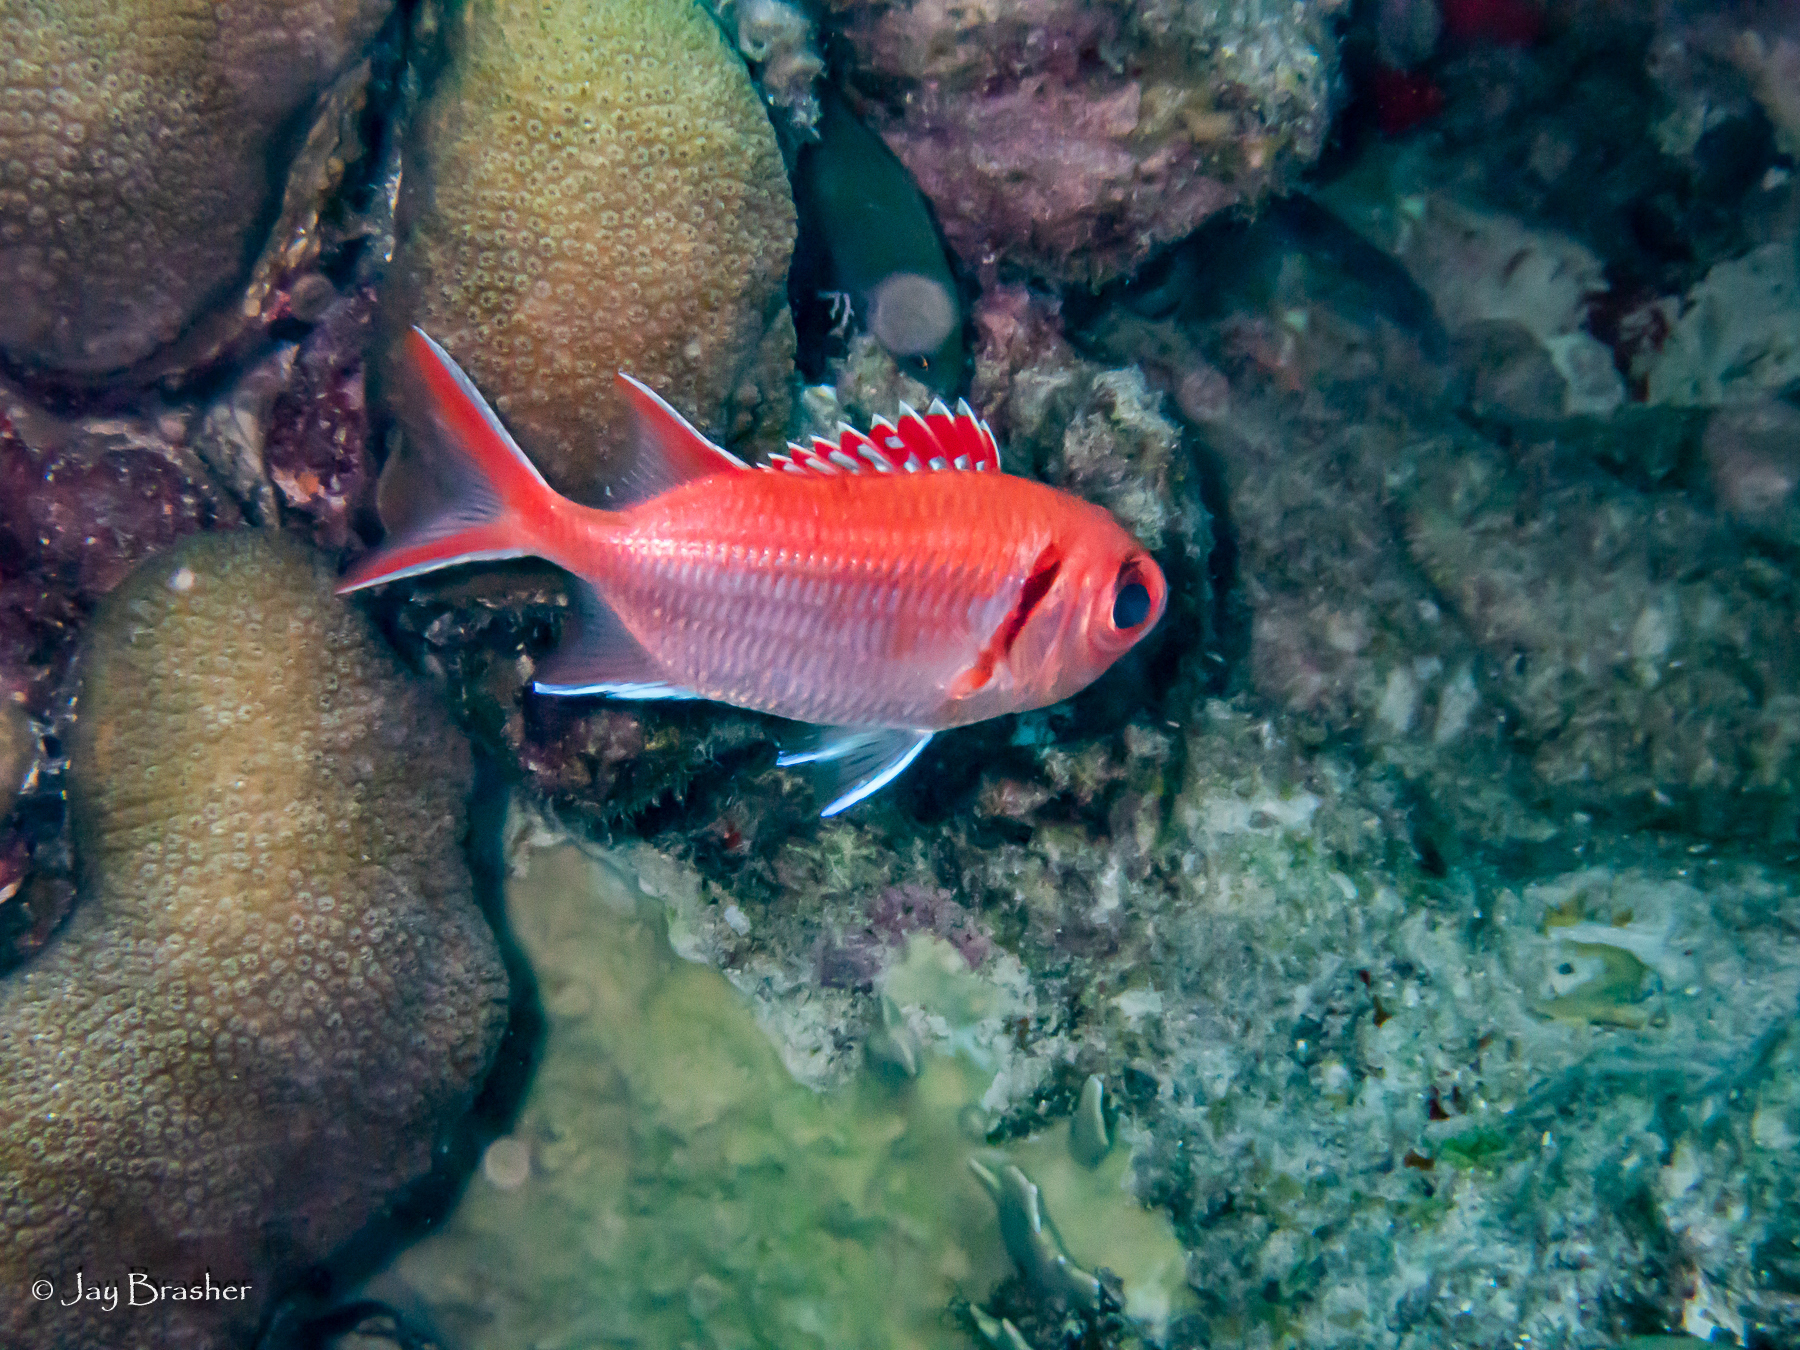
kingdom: Animalia
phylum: Chordata
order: Beryciformes
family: Holocentridae
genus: Myripristis
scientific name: Myripristis jacobus
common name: Blackbar soldierfish
